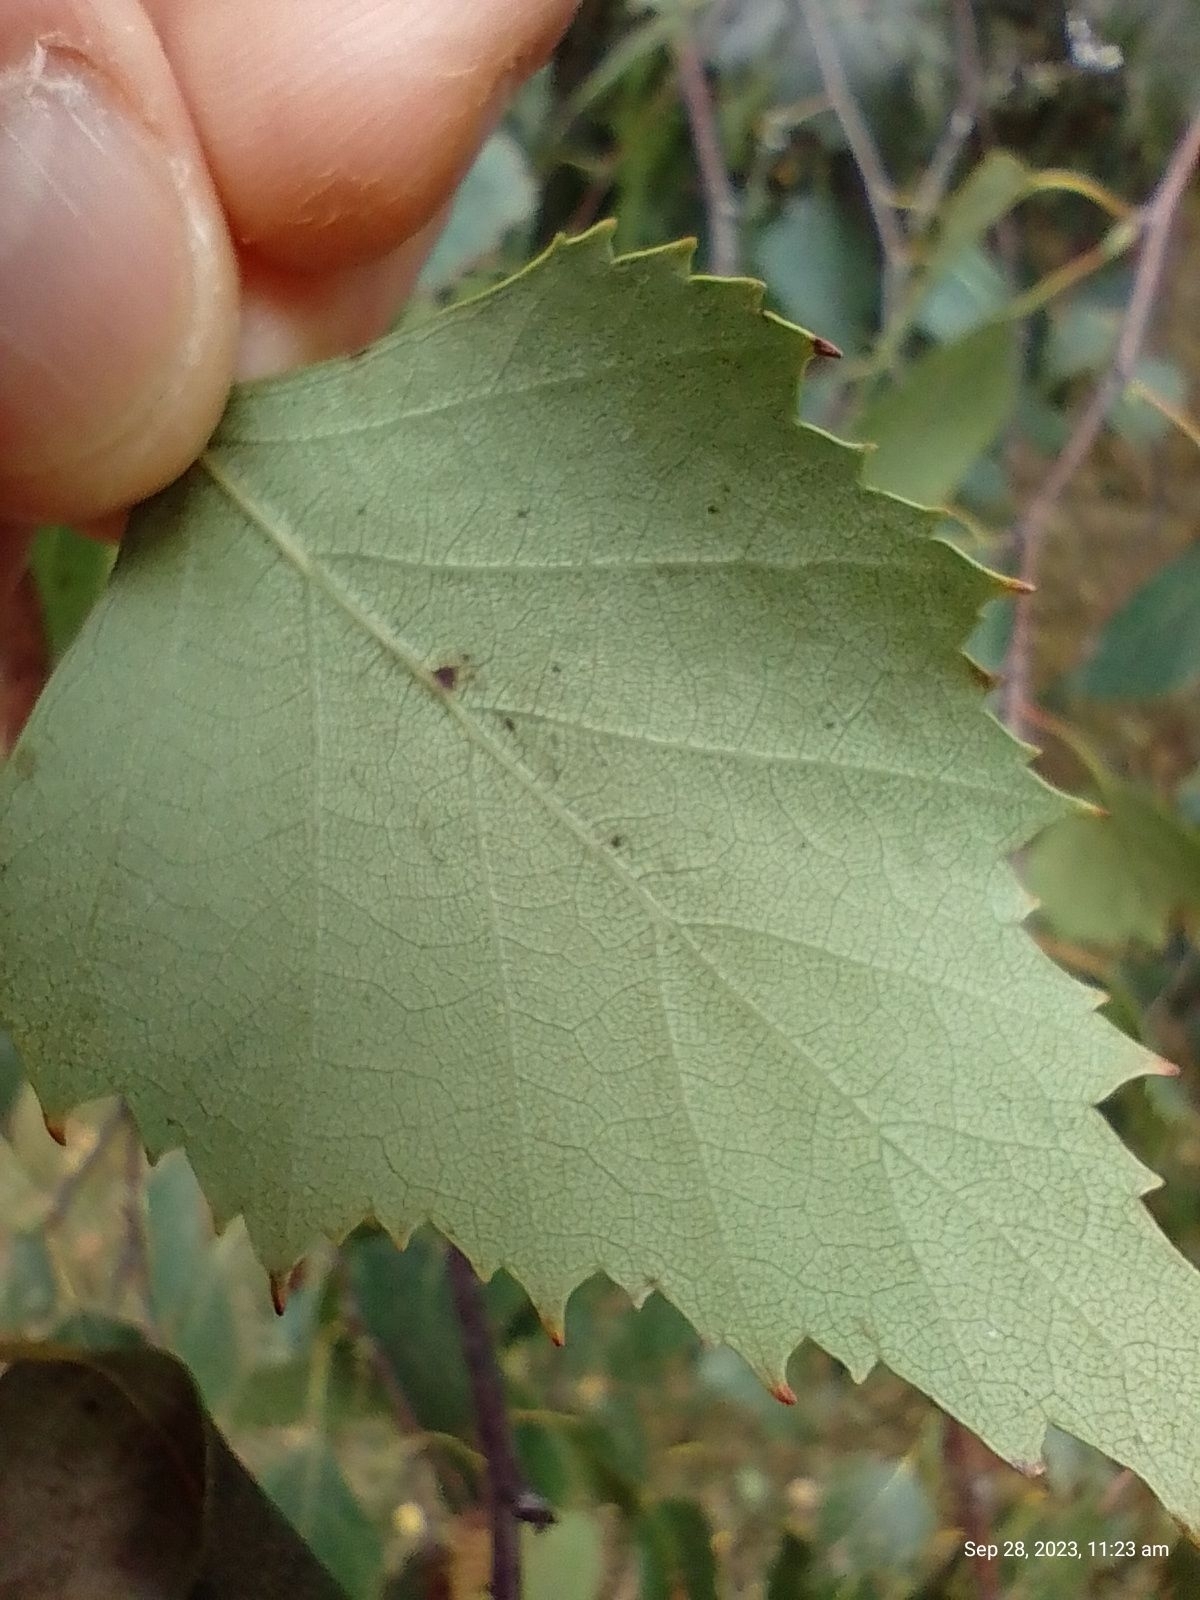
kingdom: Plantae
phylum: Tracheophyta
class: Magnoliopsida
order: Fagales
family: Betulaceae
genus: Betula
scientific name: Betula pendula
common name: Silver birch
